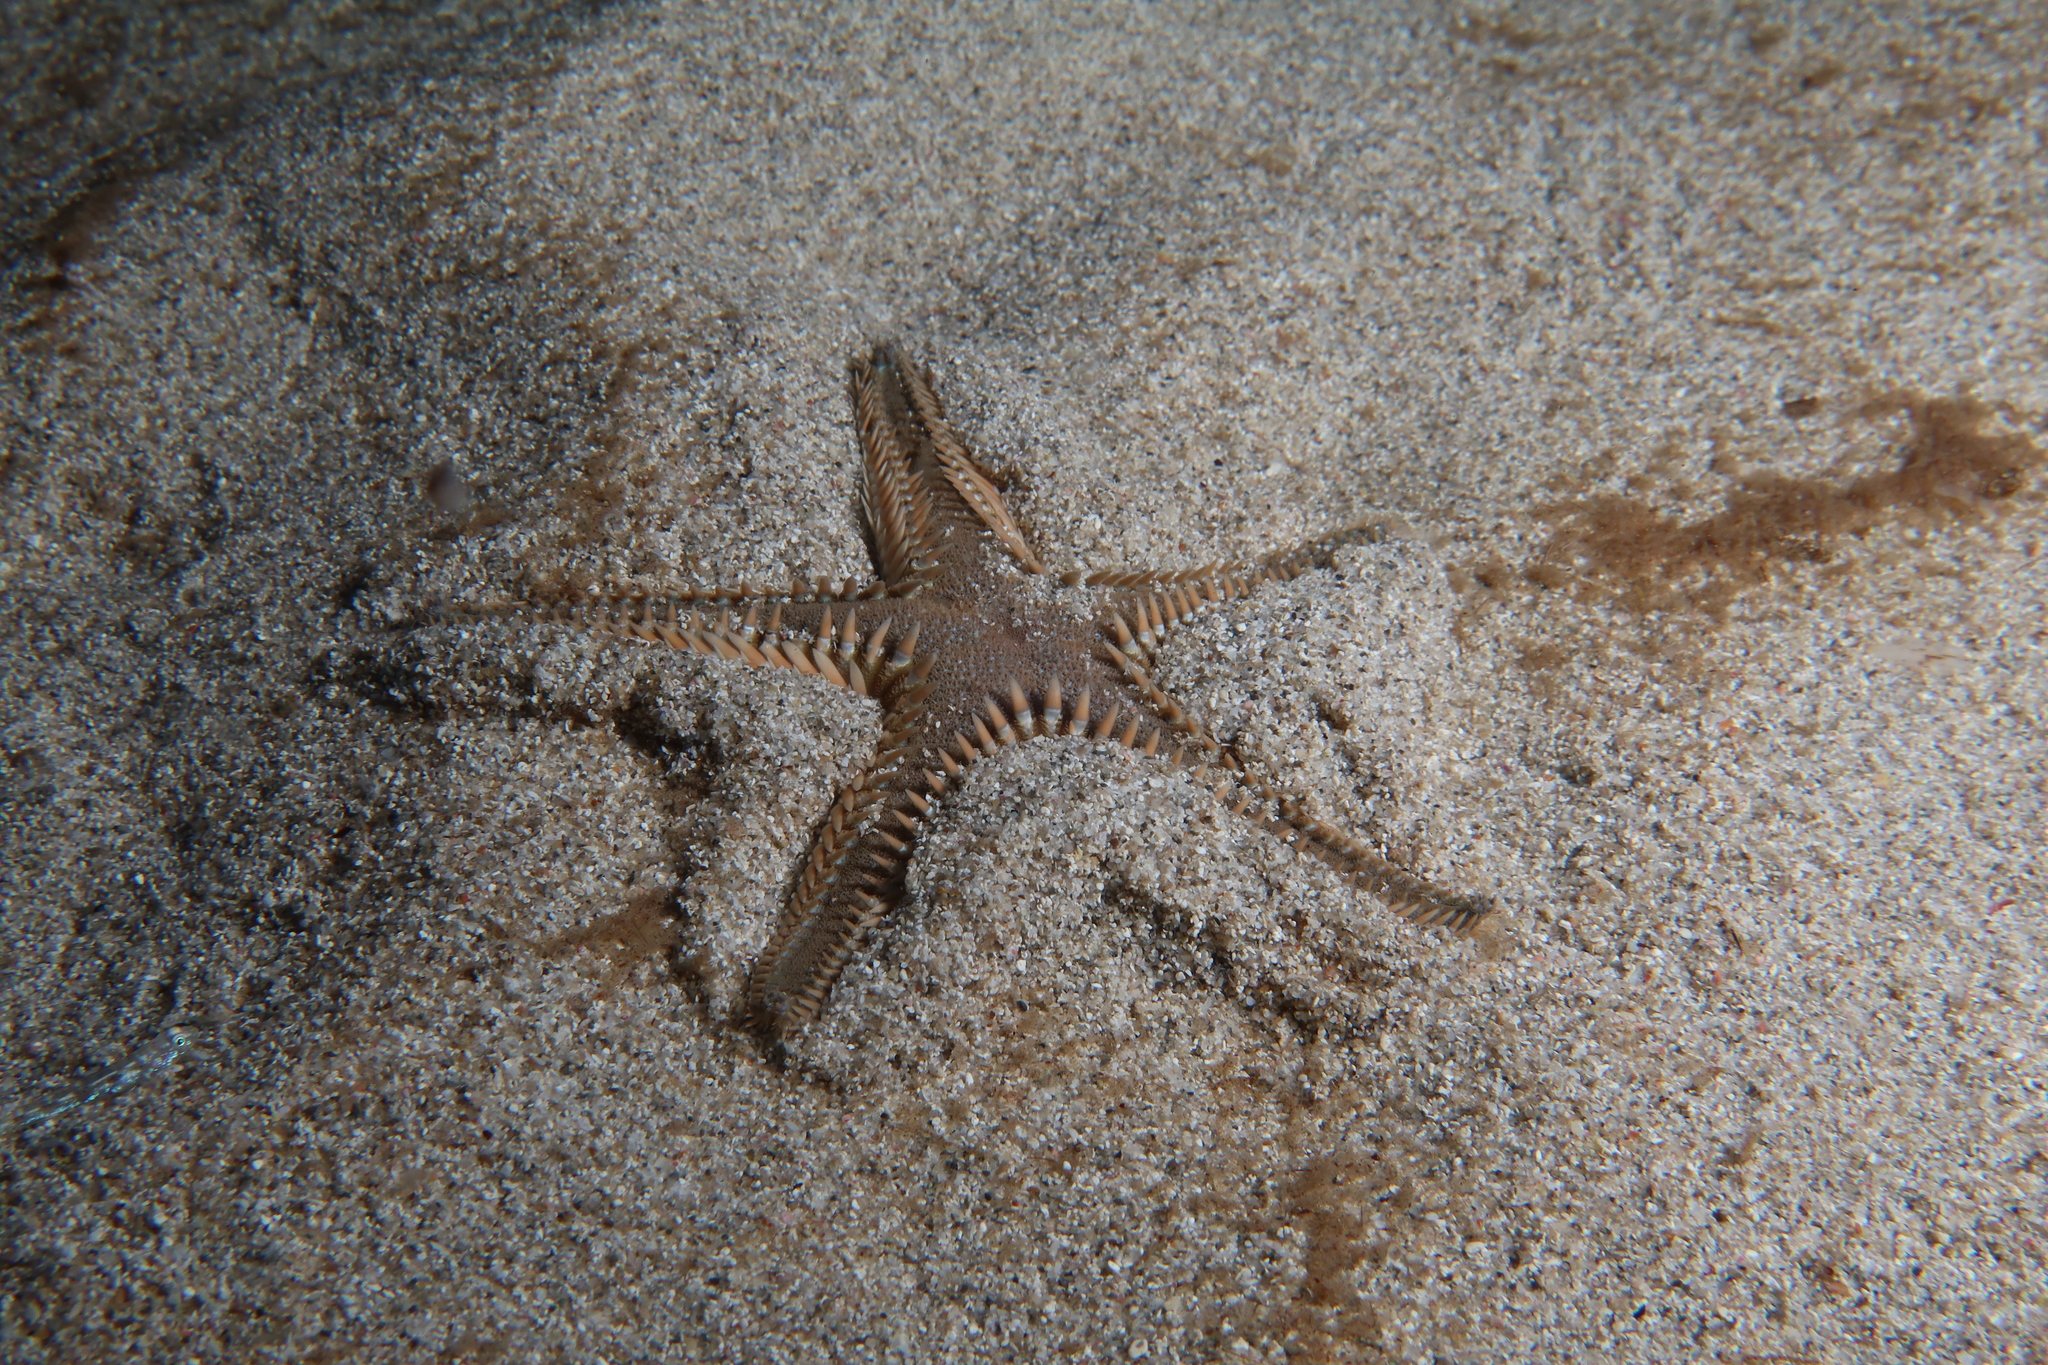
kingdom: Animalia
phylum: Echinodermata
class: Asteroidea
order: Paxillosida
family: Astropectinidae
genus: Astropecten
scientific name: Astropecten platyacanthus
